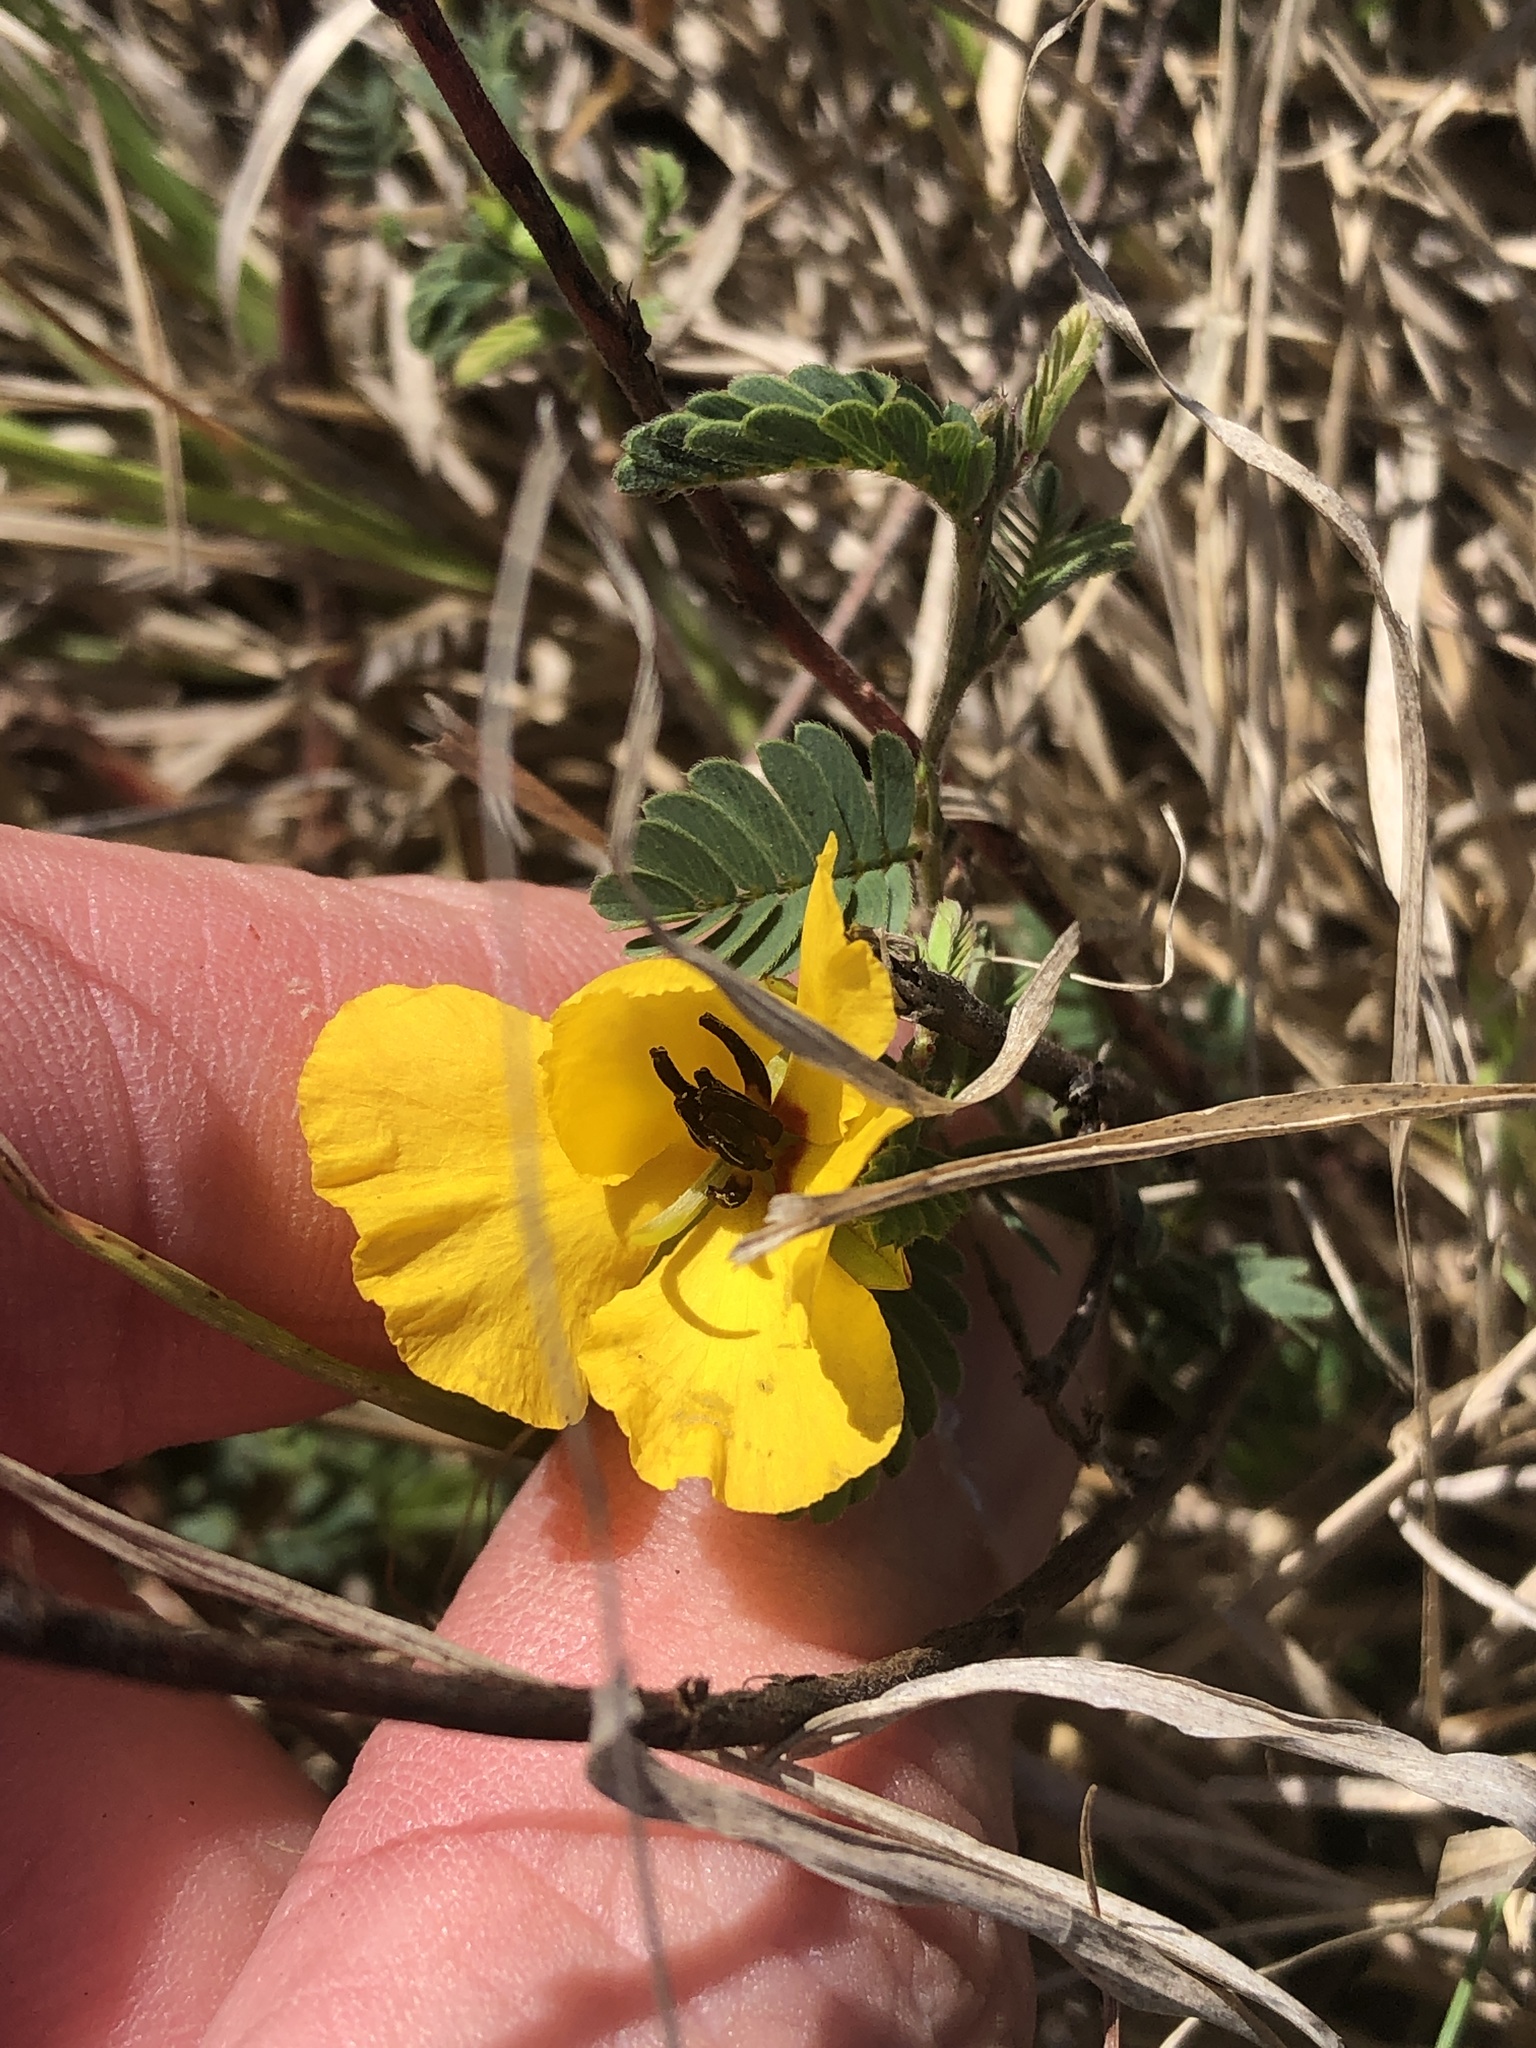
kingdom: Plantae
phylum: Tracheophyta
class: Magnoliopsida
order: Fabales
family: Fabaceae
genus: Chamaecrista
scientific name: Chamaecrista fasciculata
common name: Golden cassia
